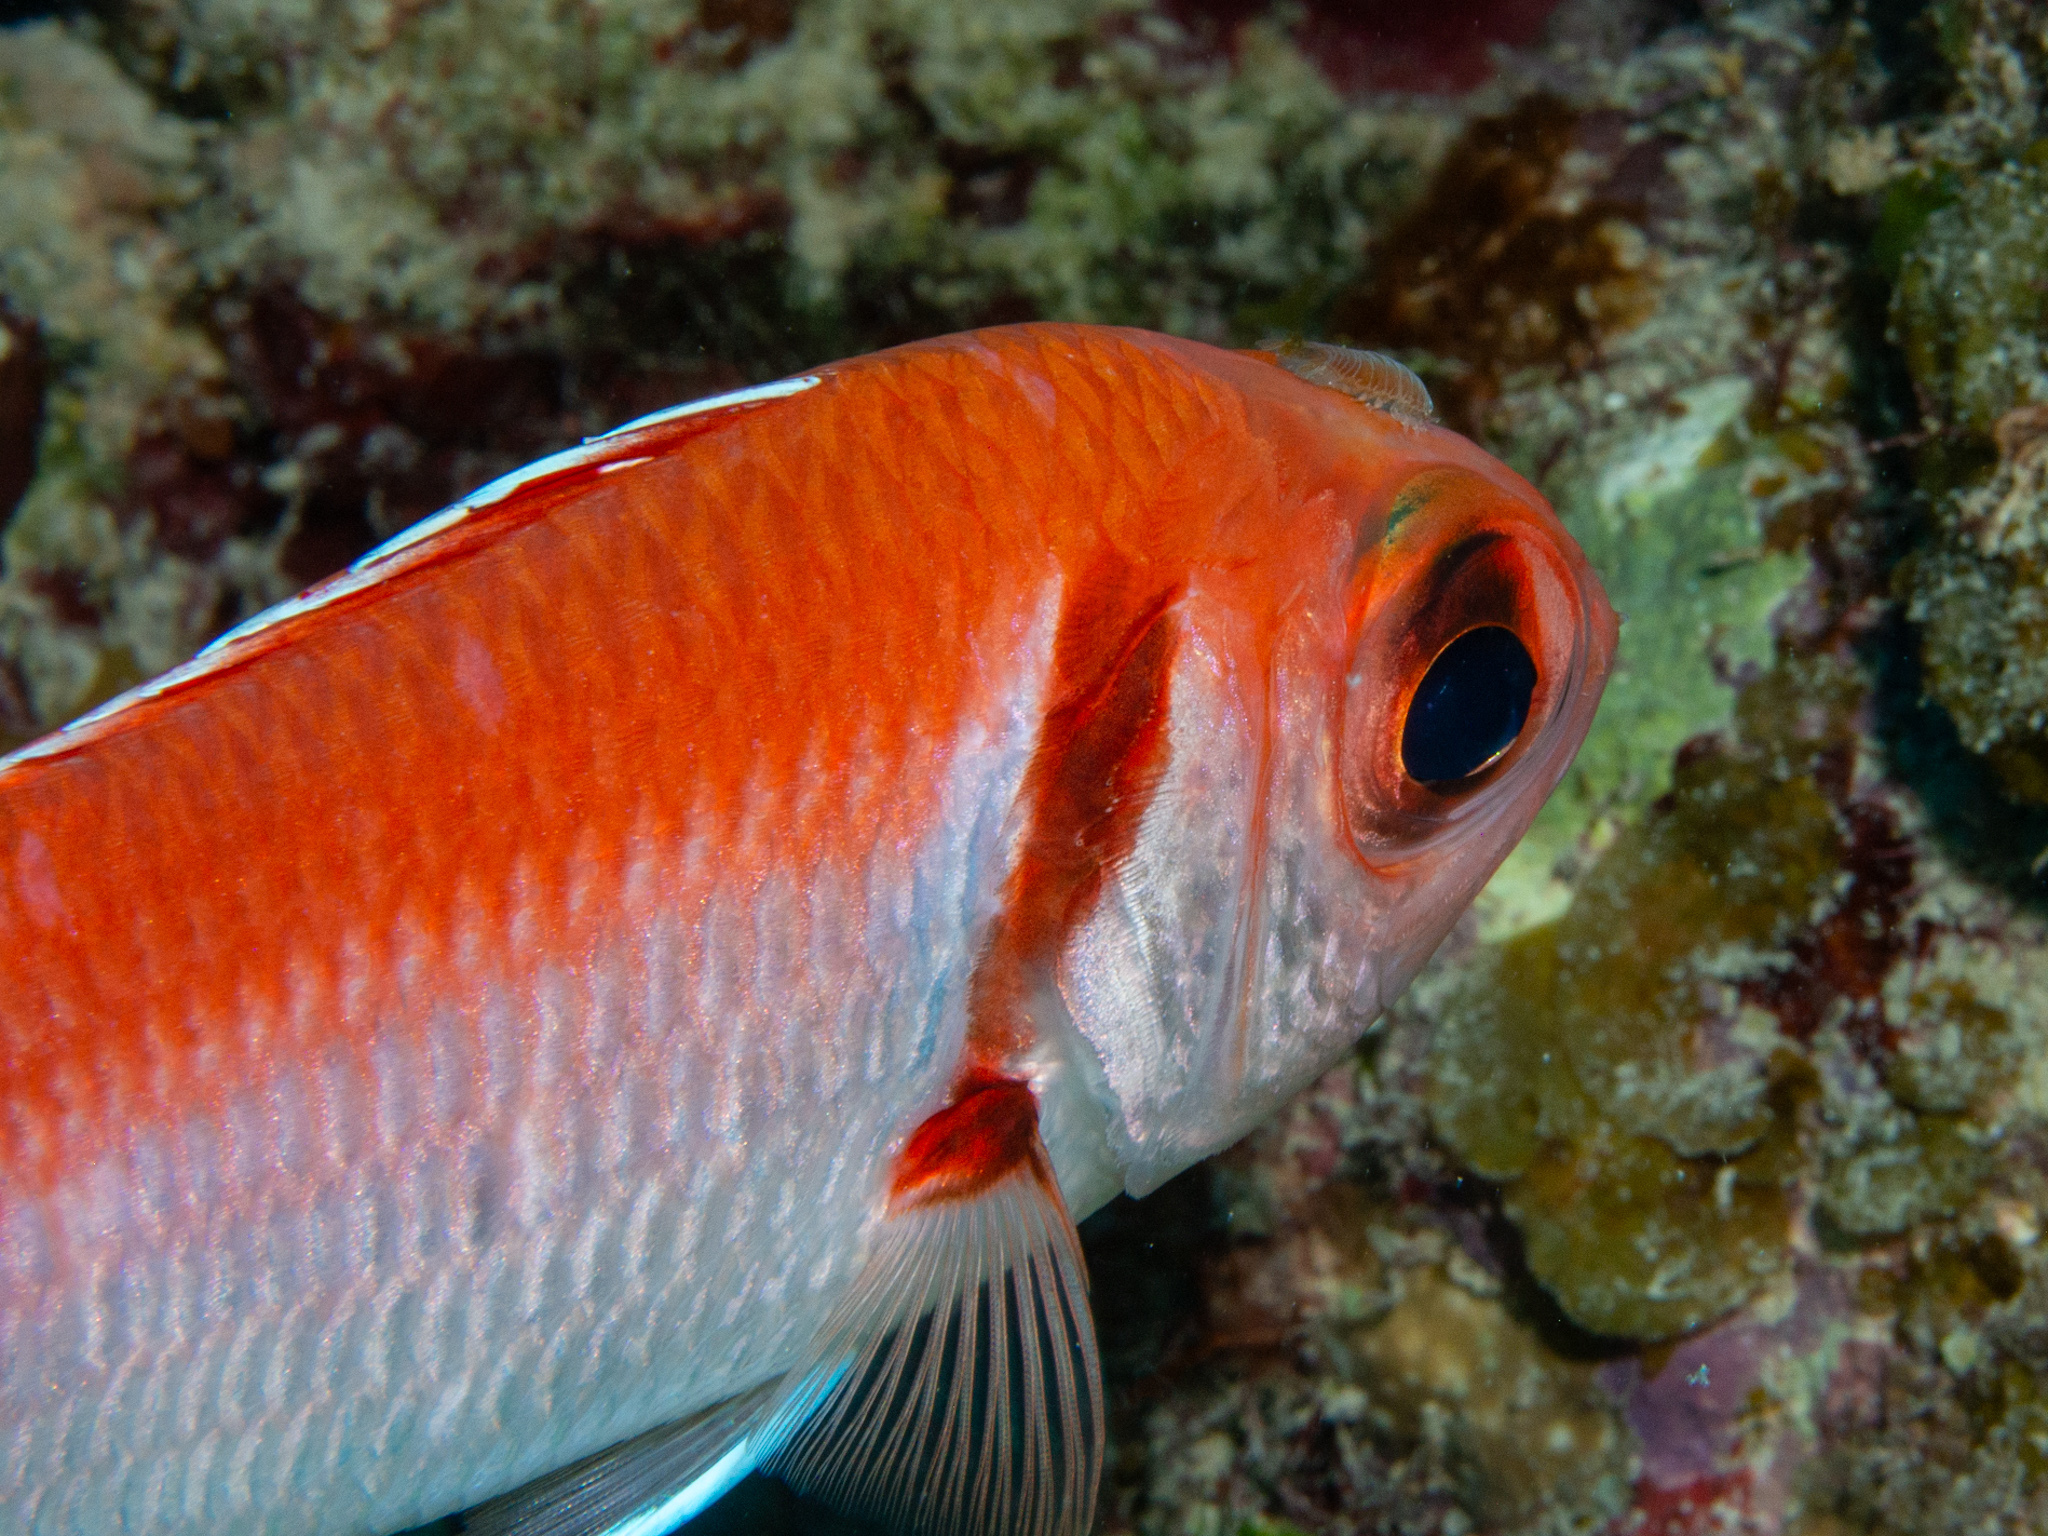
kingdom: Animalia
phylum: Chordata
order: Beryciformes
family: Holocentridae
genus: Myripristis
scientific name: Myripristis jacobus
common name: Blackbar soldierfish
